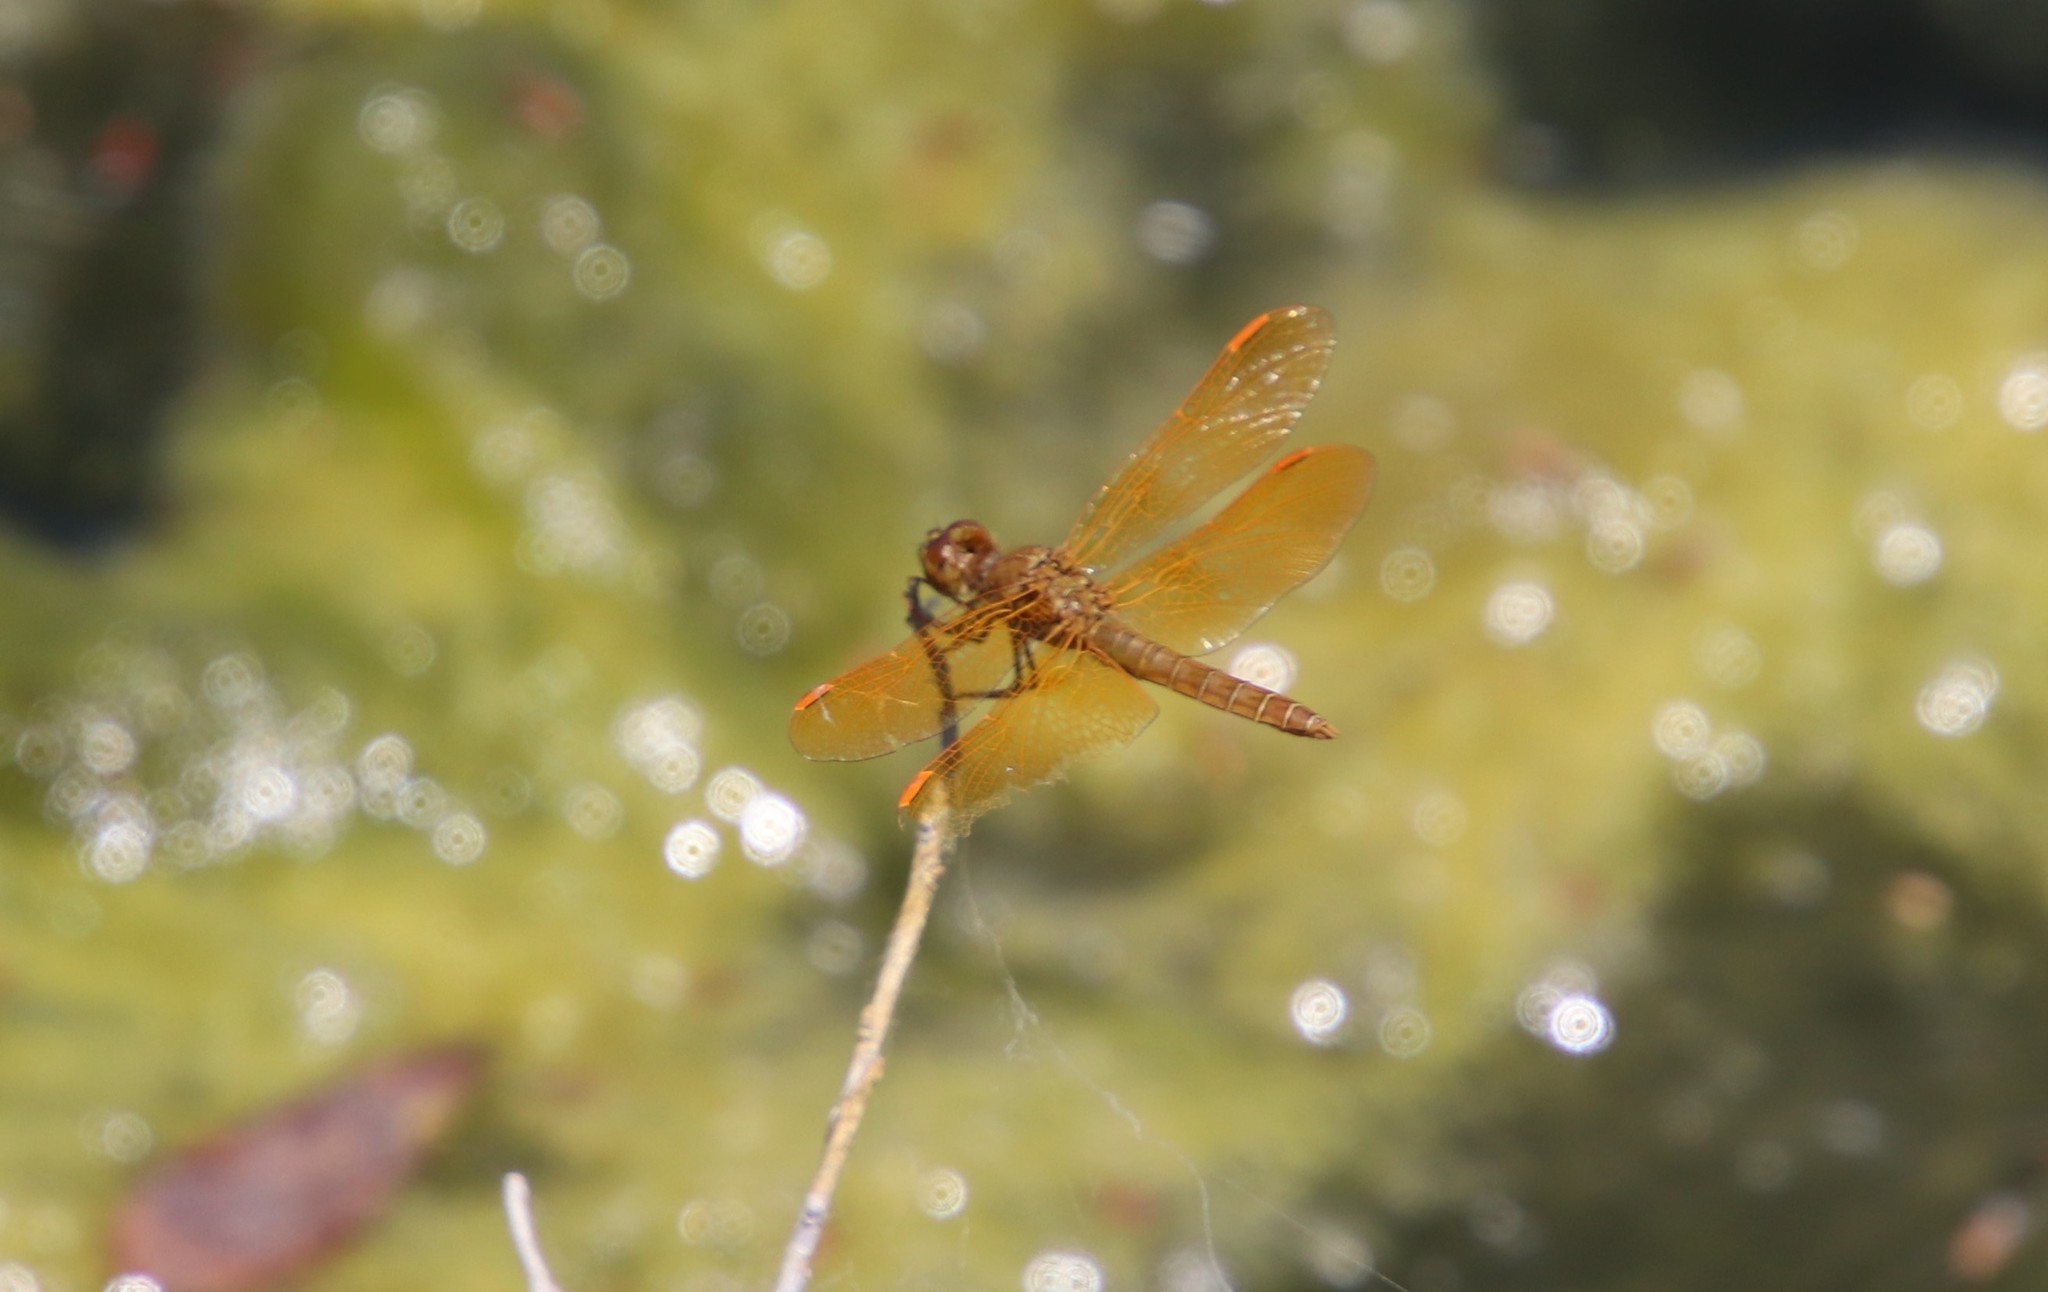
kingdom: Animalia
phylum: Arthropoda
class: Insecta
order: Odonata
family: Libellulidae
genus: Perithemis
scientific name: Perithemis intensa
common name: Mexican amberwing
